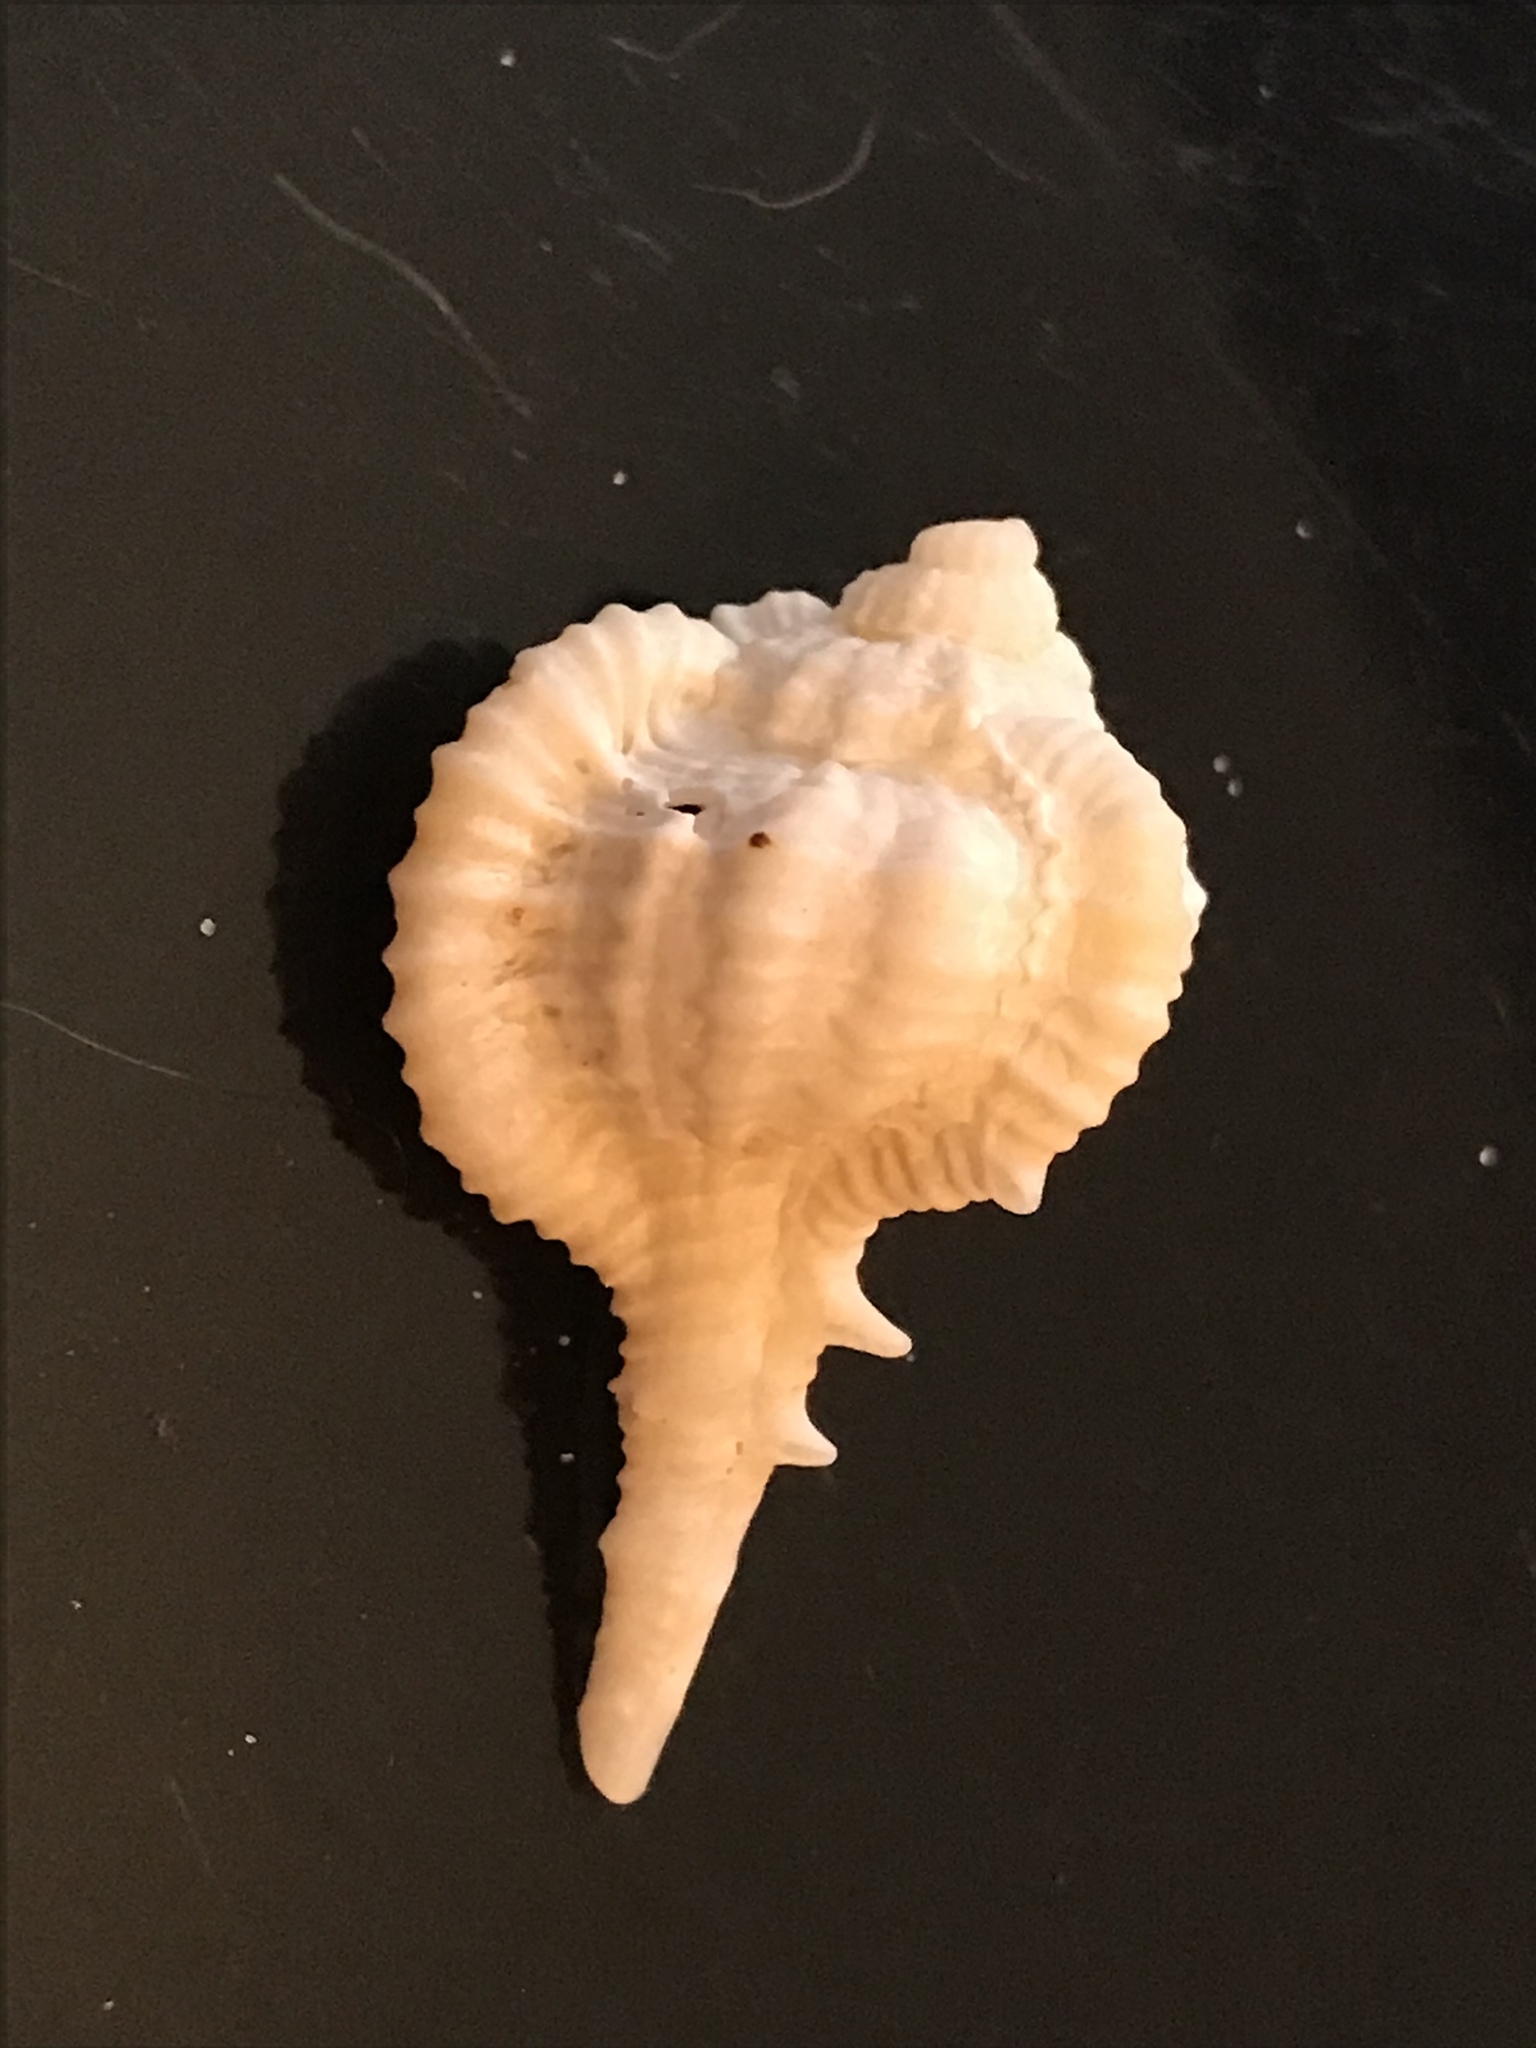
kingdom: Animalia
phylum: Mollusca
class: Gastropoda
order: Neogastropoda
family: Muricidae
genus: Vokesimurex
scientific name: Vokesimurex rubidus
